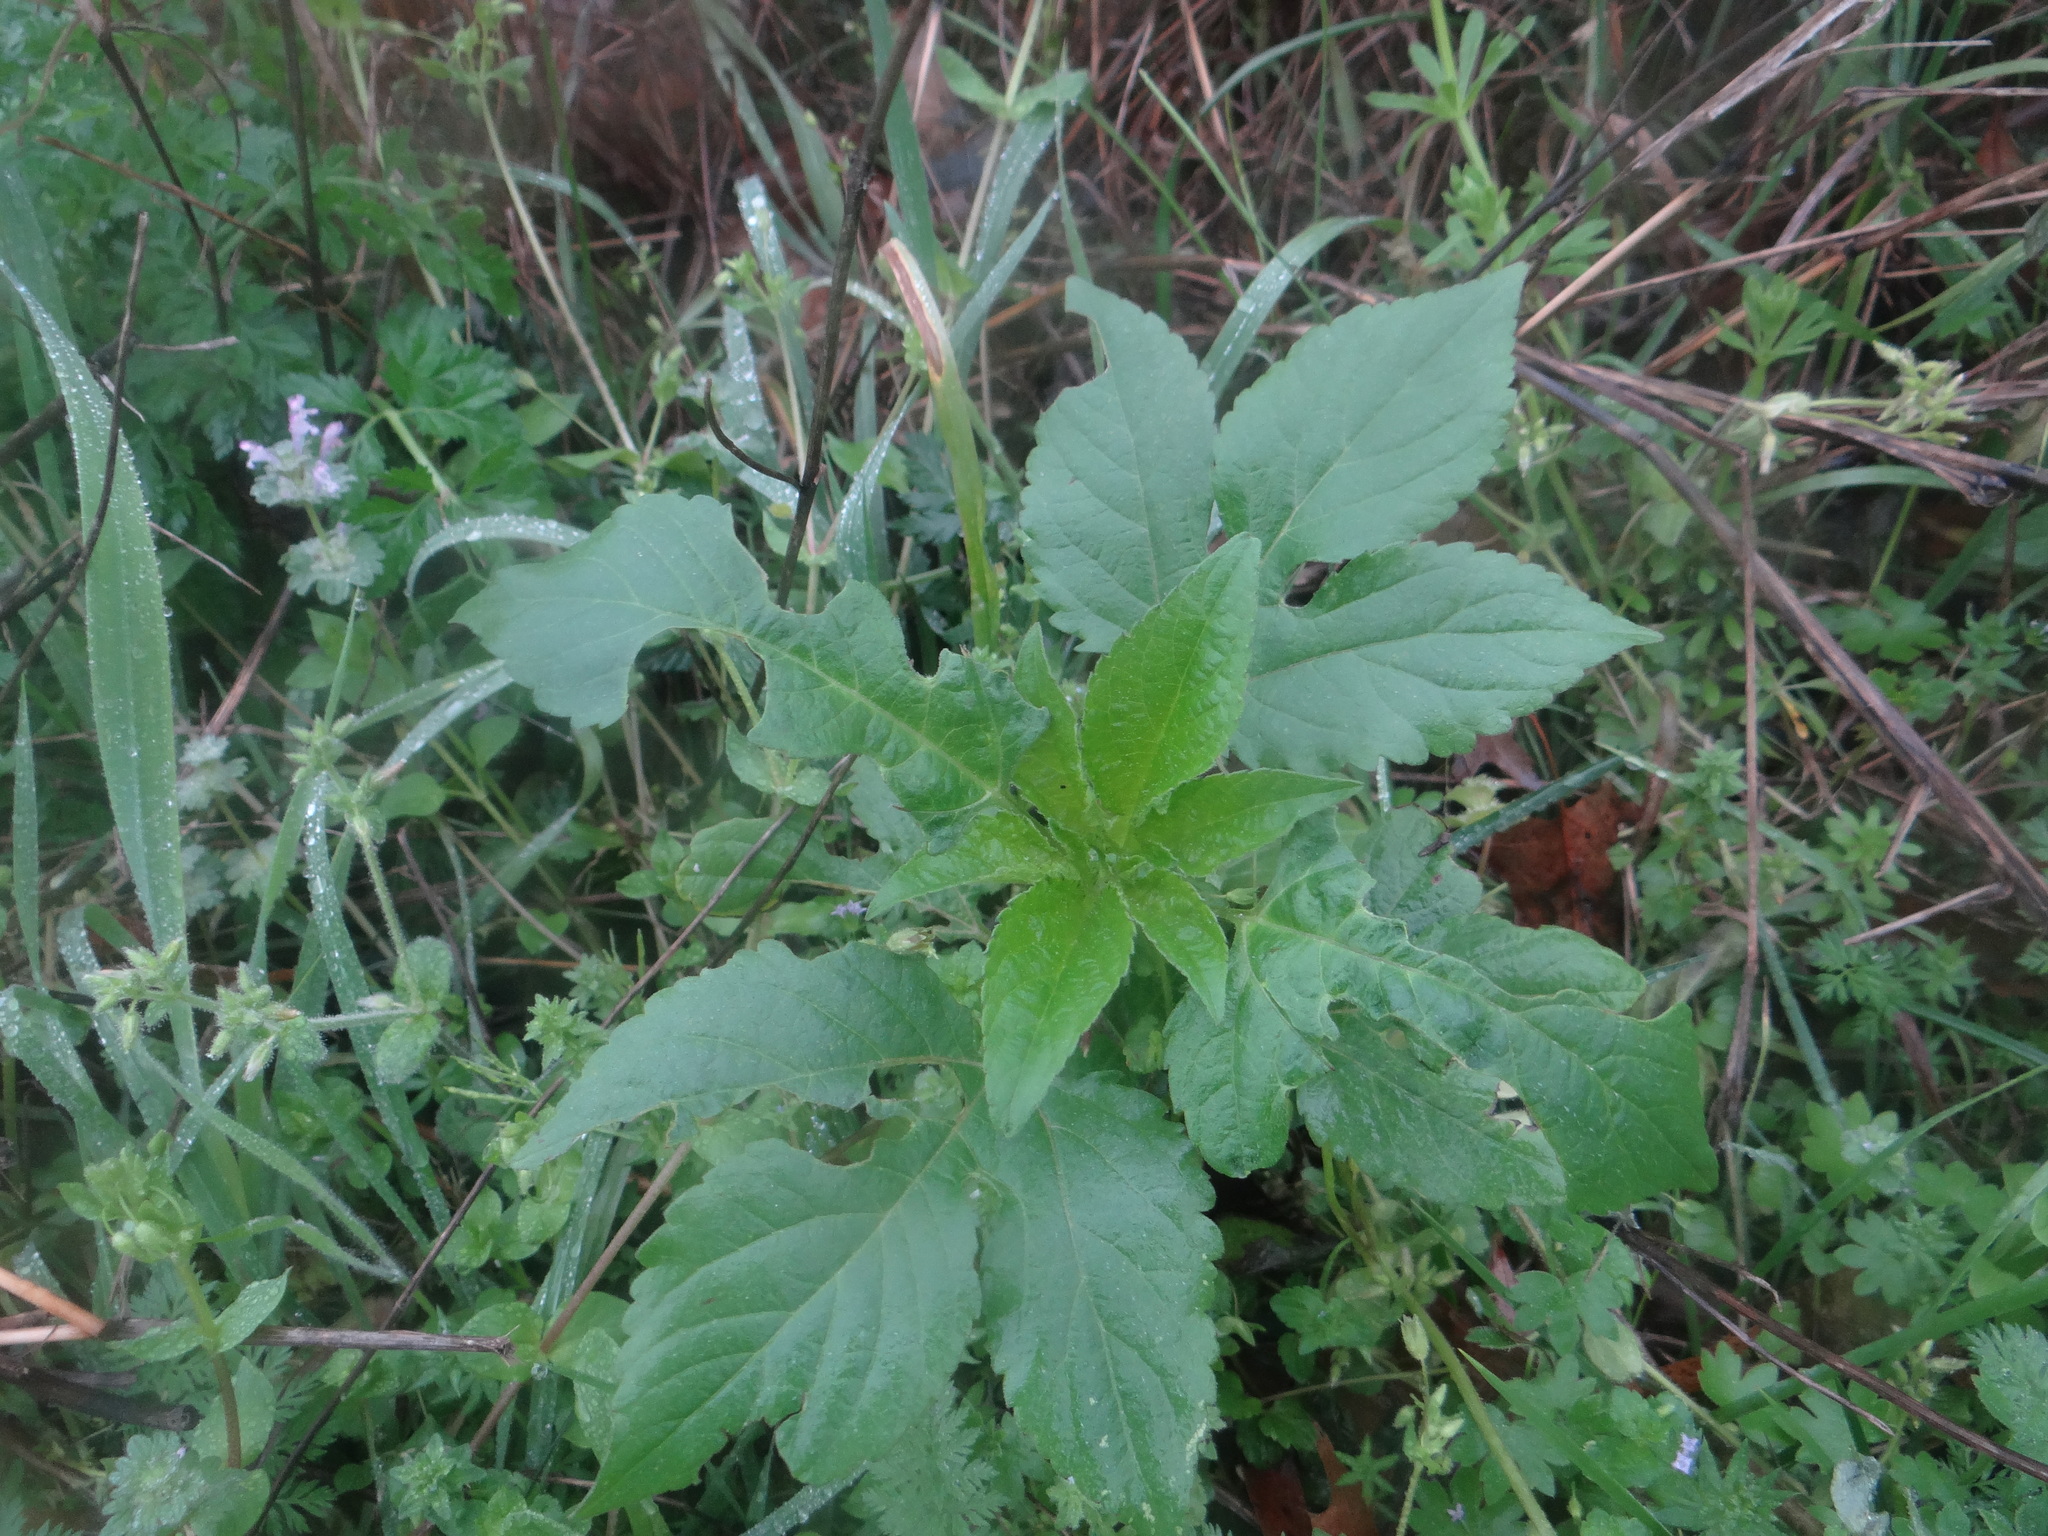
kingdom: Plantae
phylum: Tracheophyta
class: Magnoliopsida
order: Asterales
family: Asteraceae
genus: Ambrosia
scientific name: Ambrosia trifida
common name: Giant ragweed
